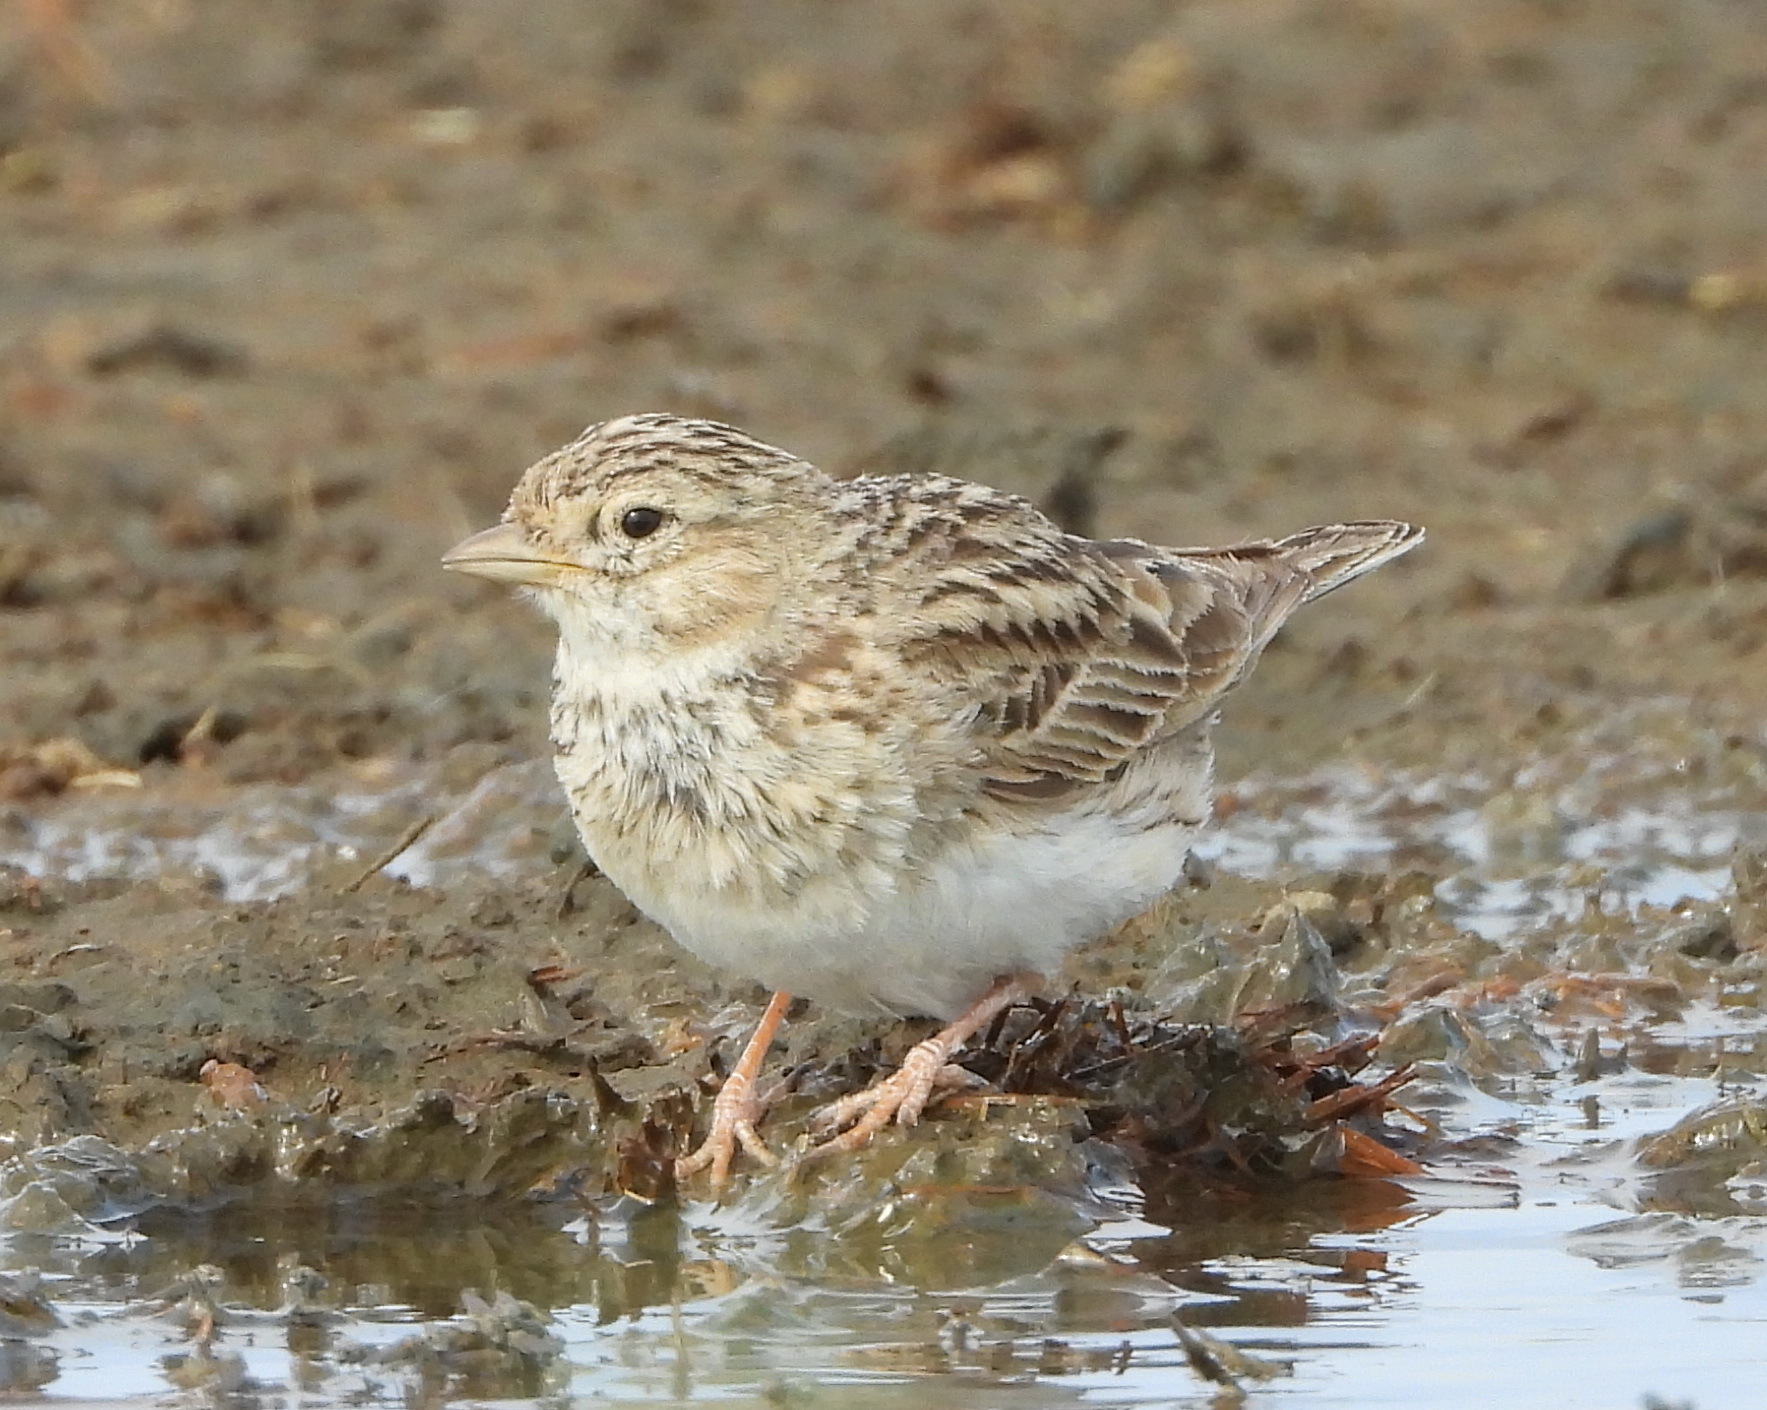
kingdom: Animalia
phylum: Chordata
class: Aves
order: Passeriformes
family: Alaudidae
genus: Calandrella
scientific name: Calandrella rufescens
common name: Lesser short-toed lark
